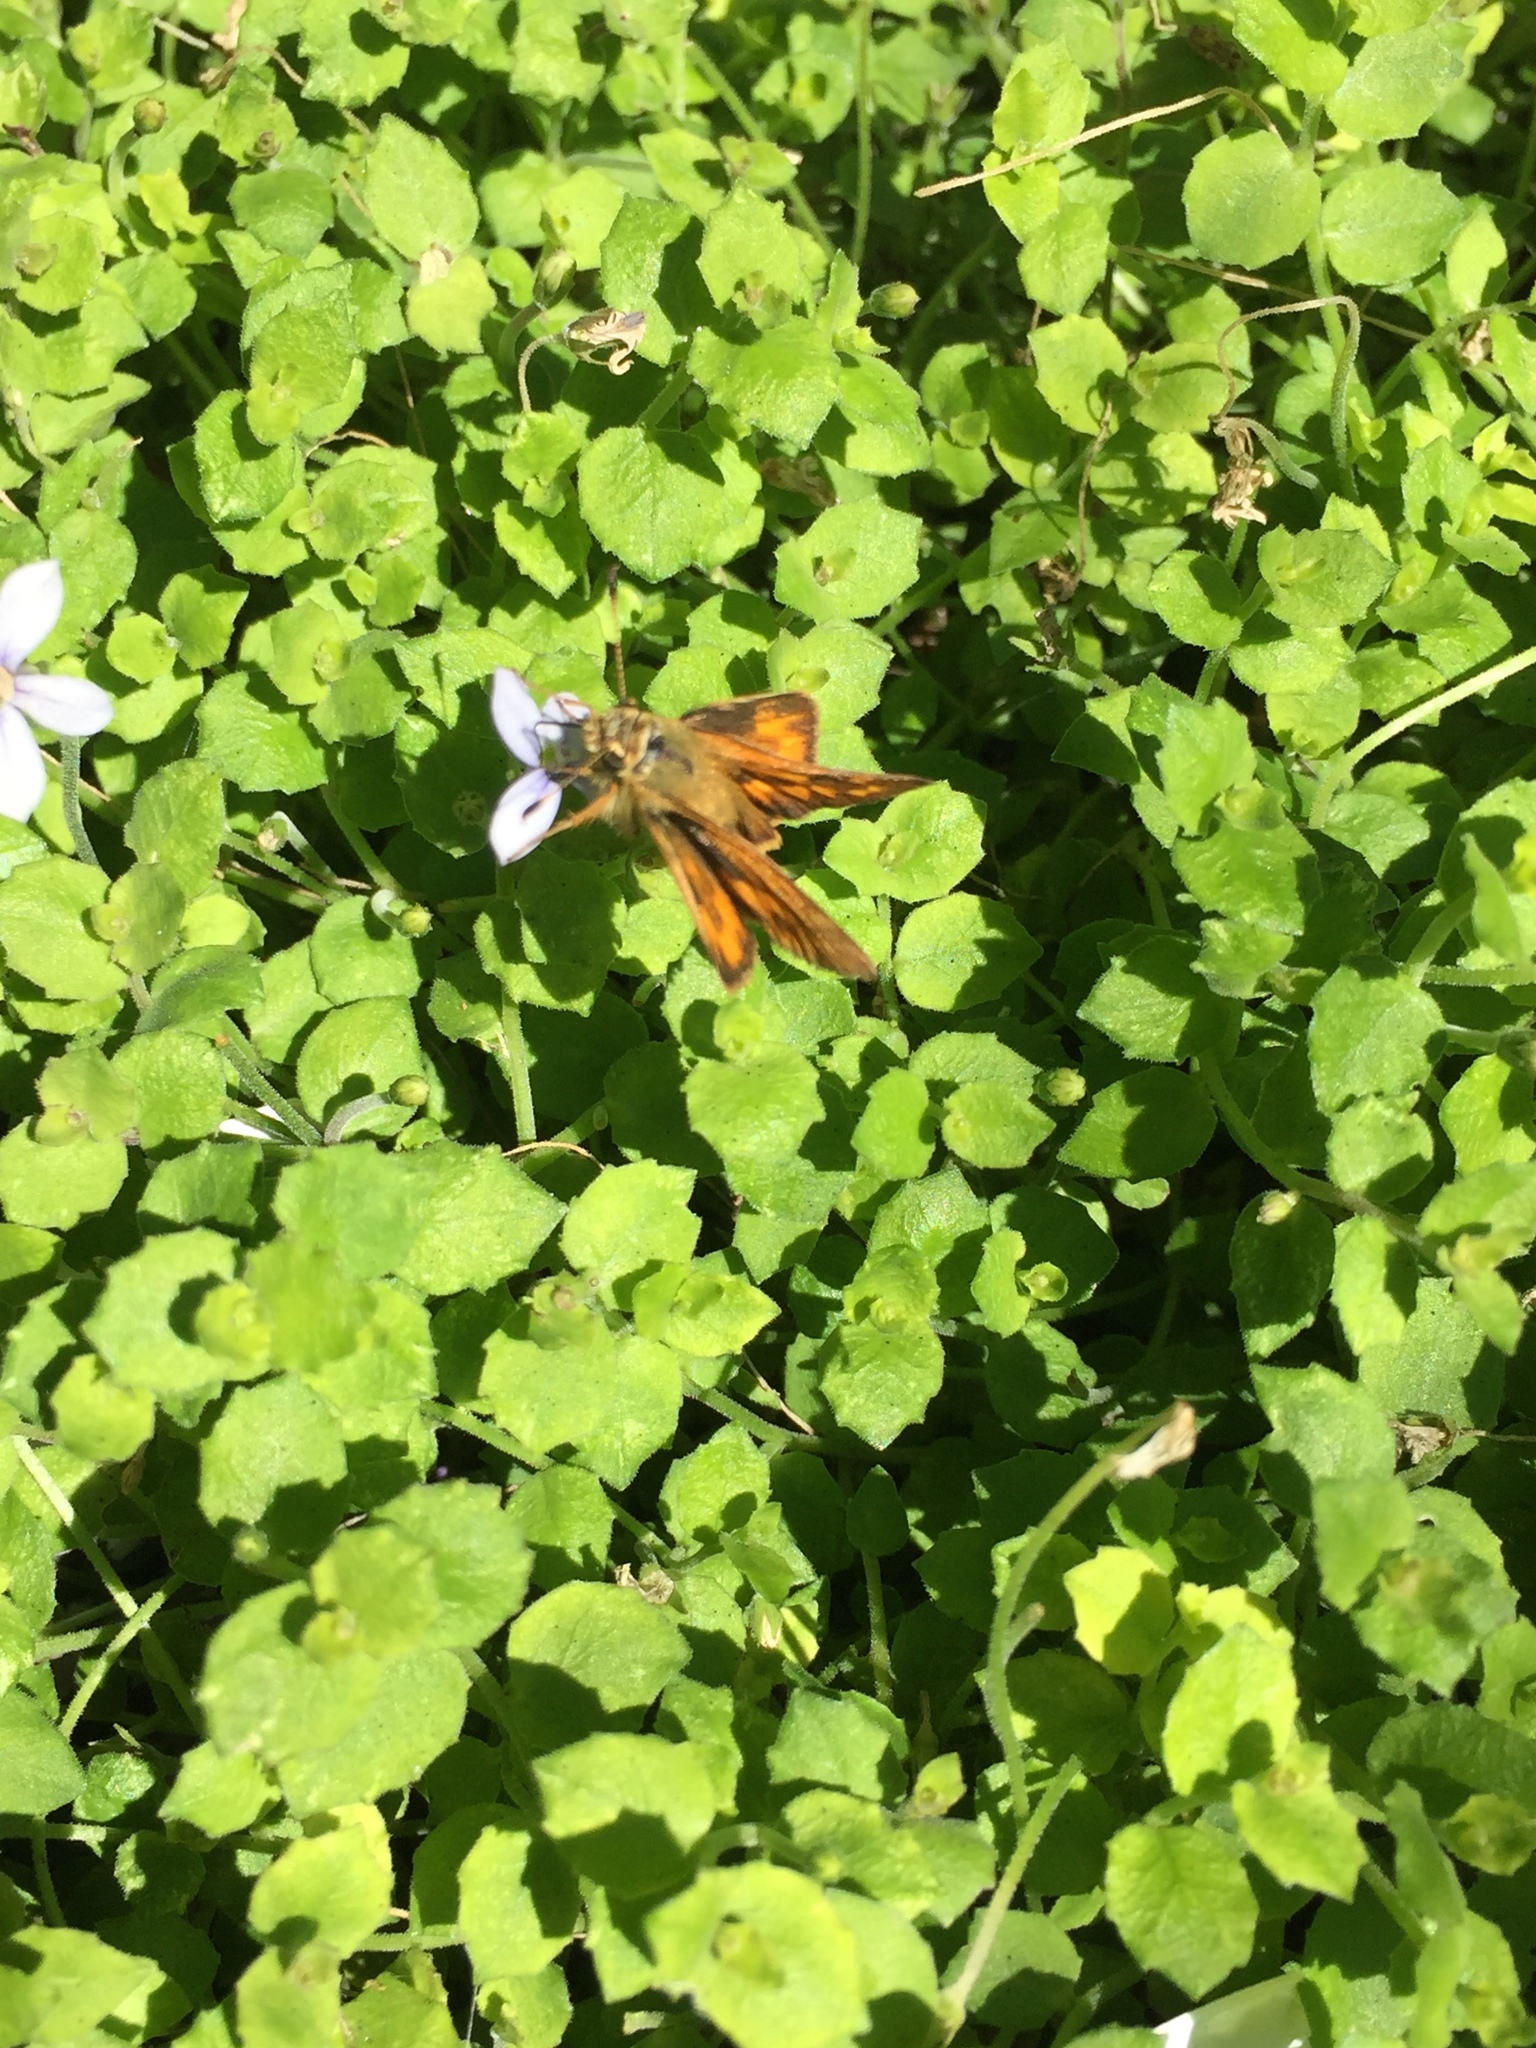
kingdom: Animalia
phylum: Arthropoda
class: Insecta
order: Lepidoptera
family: Hesperiidae
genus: Ochlodes
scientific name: Ochlodes sylvanoides
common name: Woodland skipper
